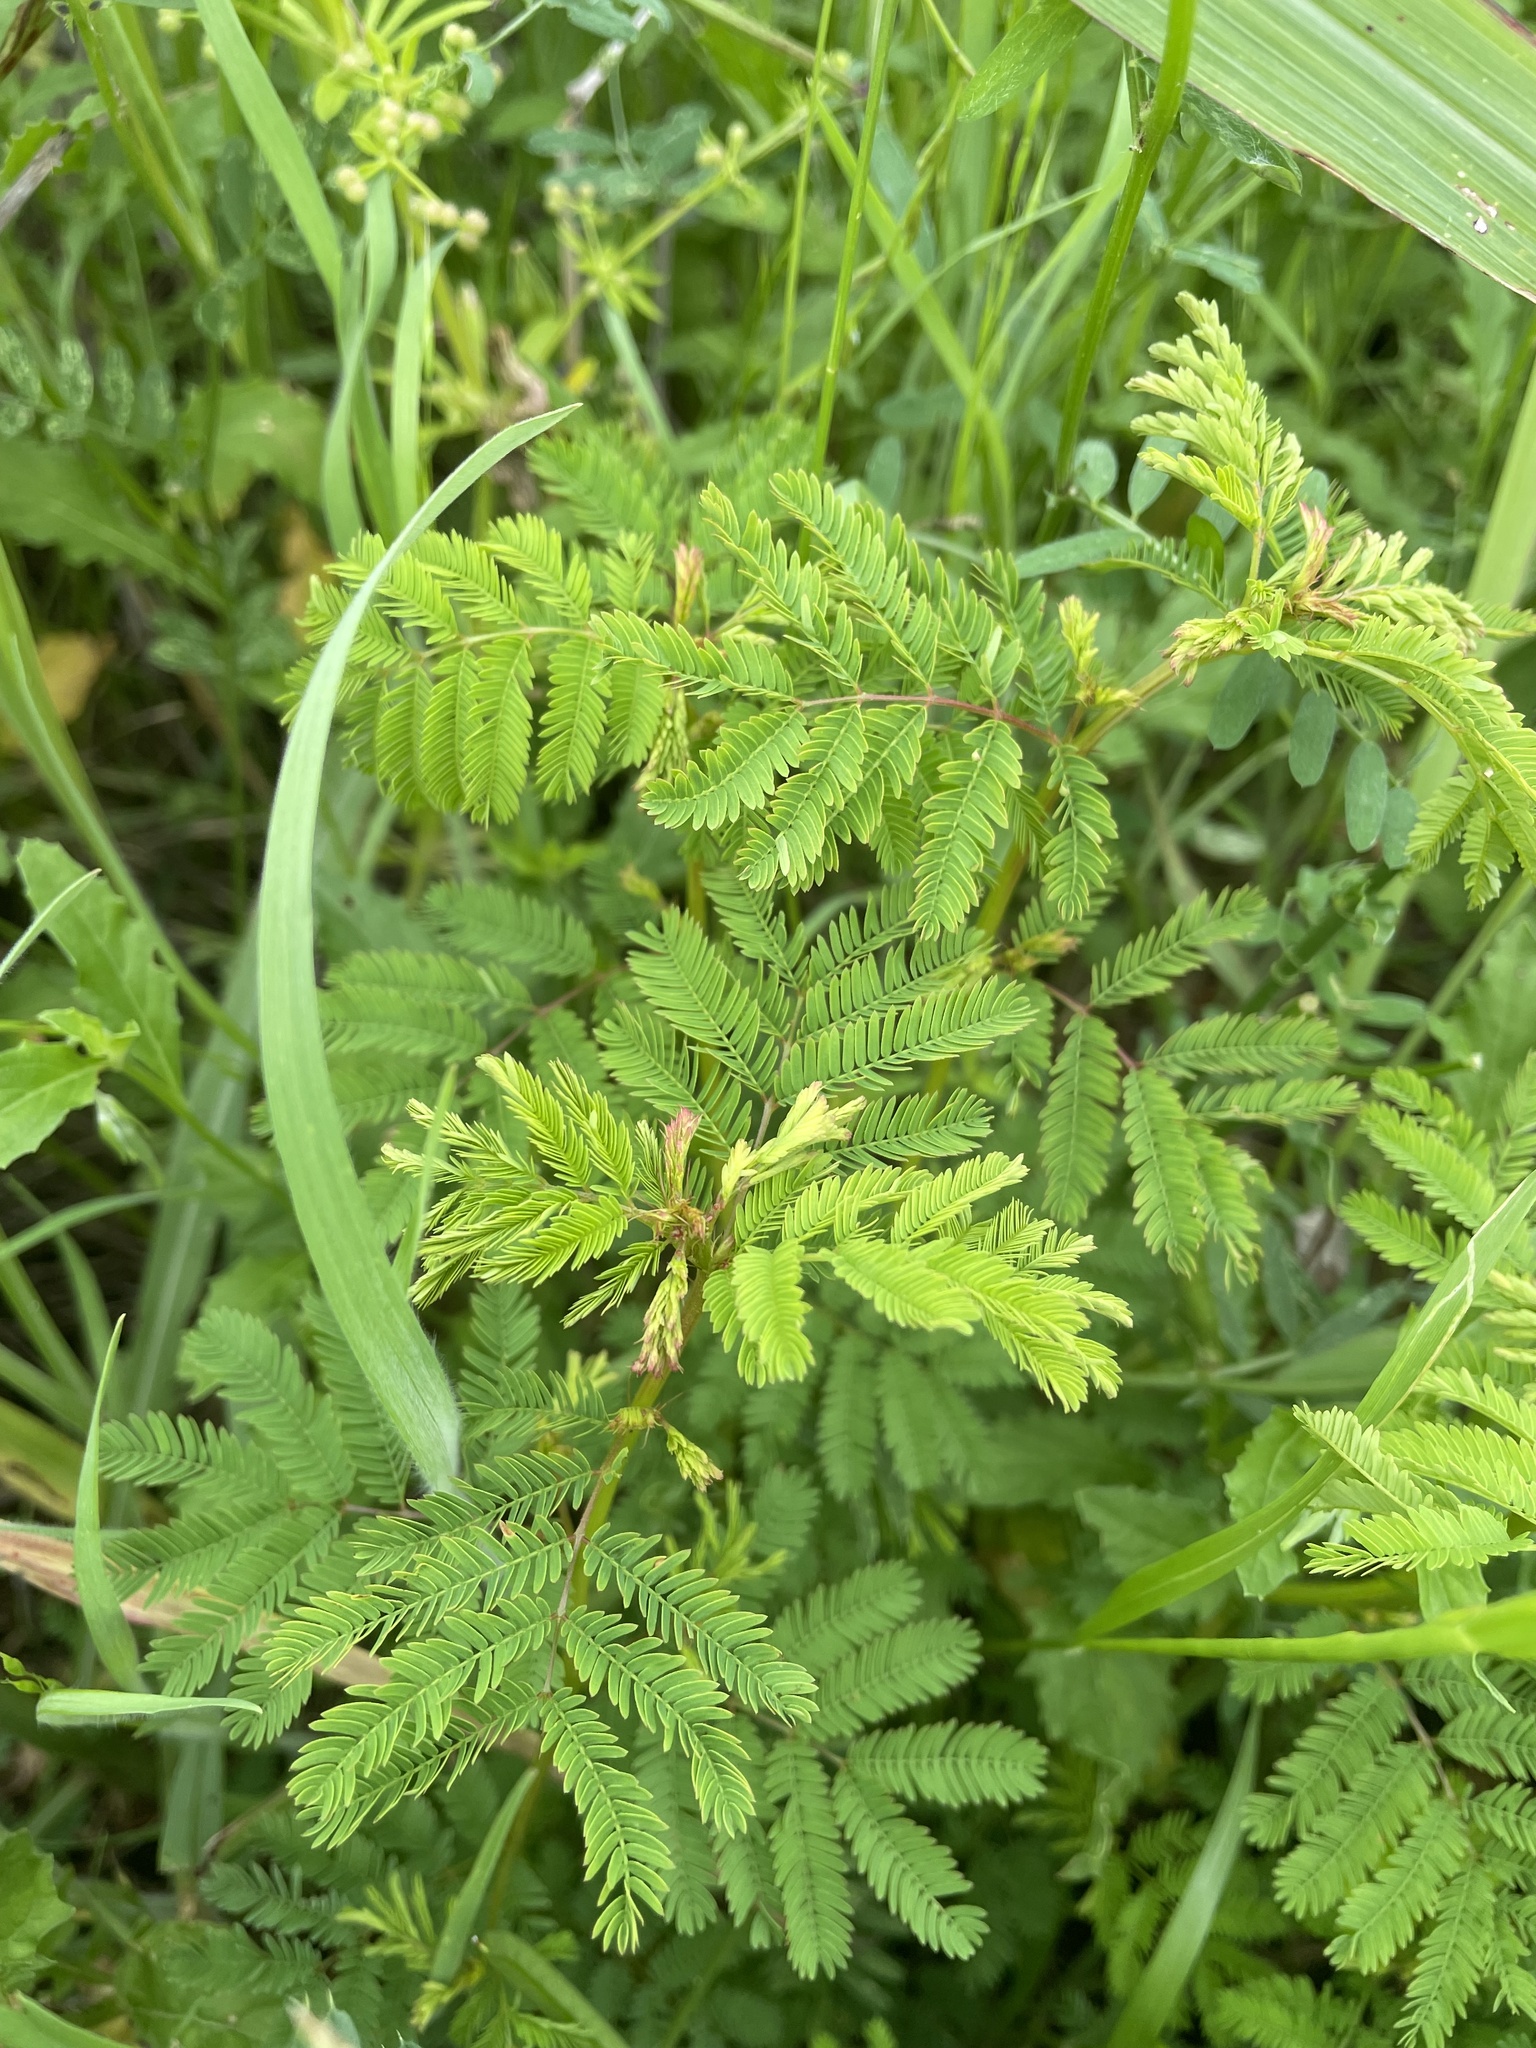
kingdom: Plantae
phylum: Tracheophyta
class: Magnoliopsida
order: Fabales
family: Fabaceae
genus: Desmanthus
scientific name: Desmanthus illinoensis
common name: Illinois bundle-flower
